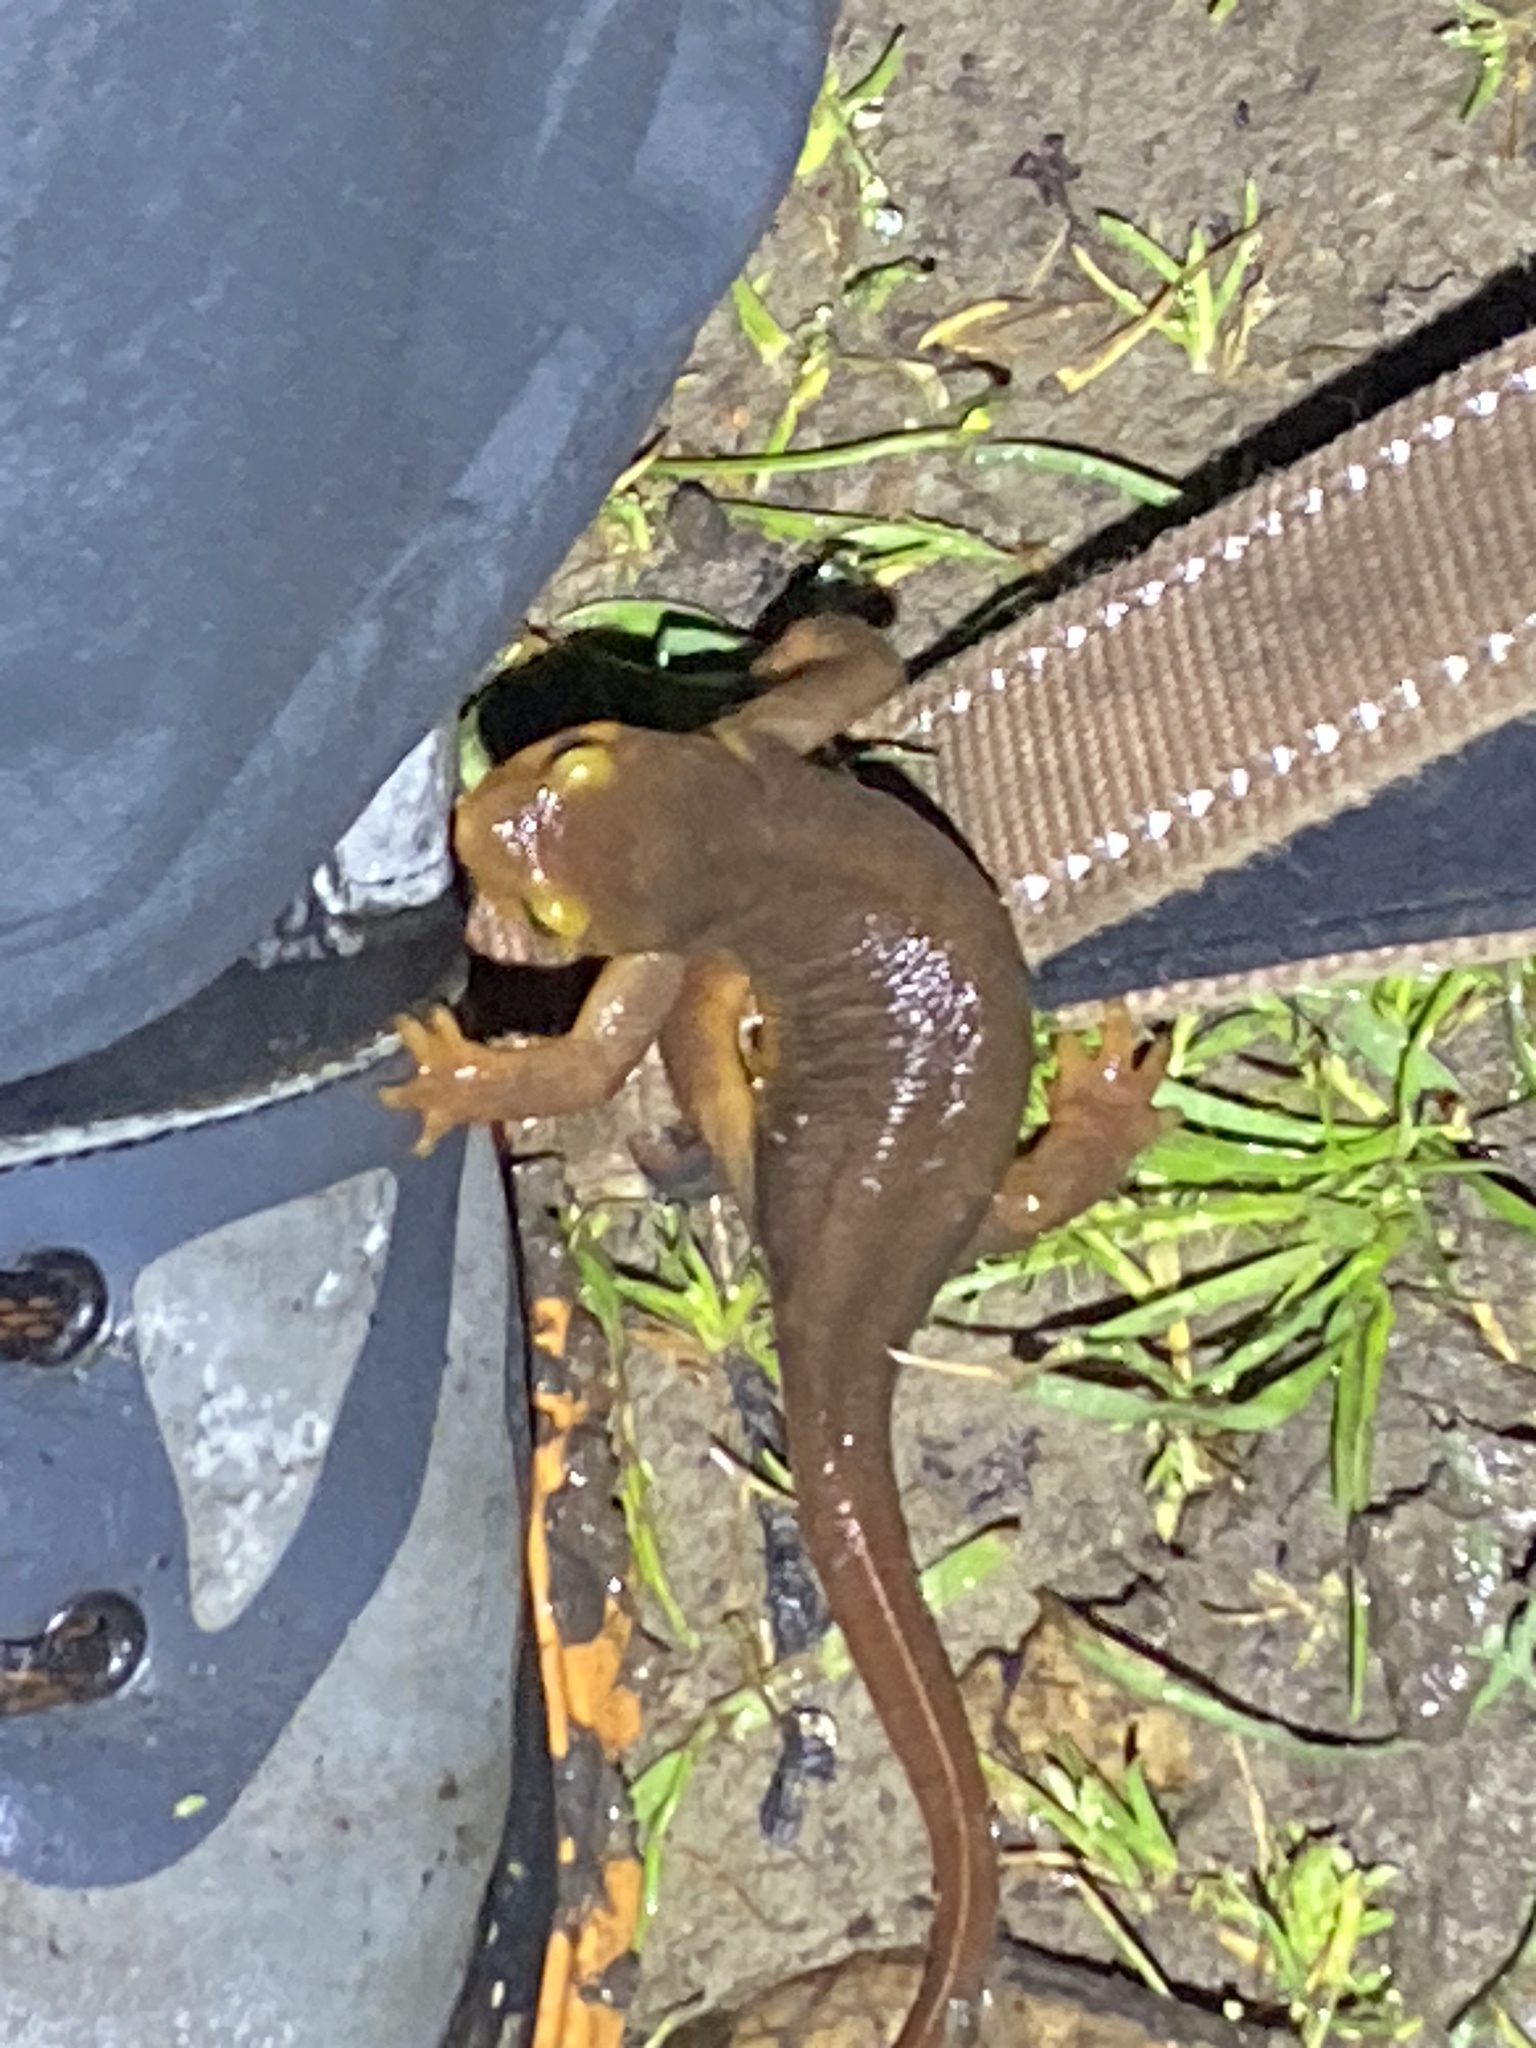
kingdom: Animalia
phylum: Chordata
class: Amphibia
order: Caudata
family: Salamandridae
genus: Taricha
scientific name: Taricha torosa
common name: California newt
